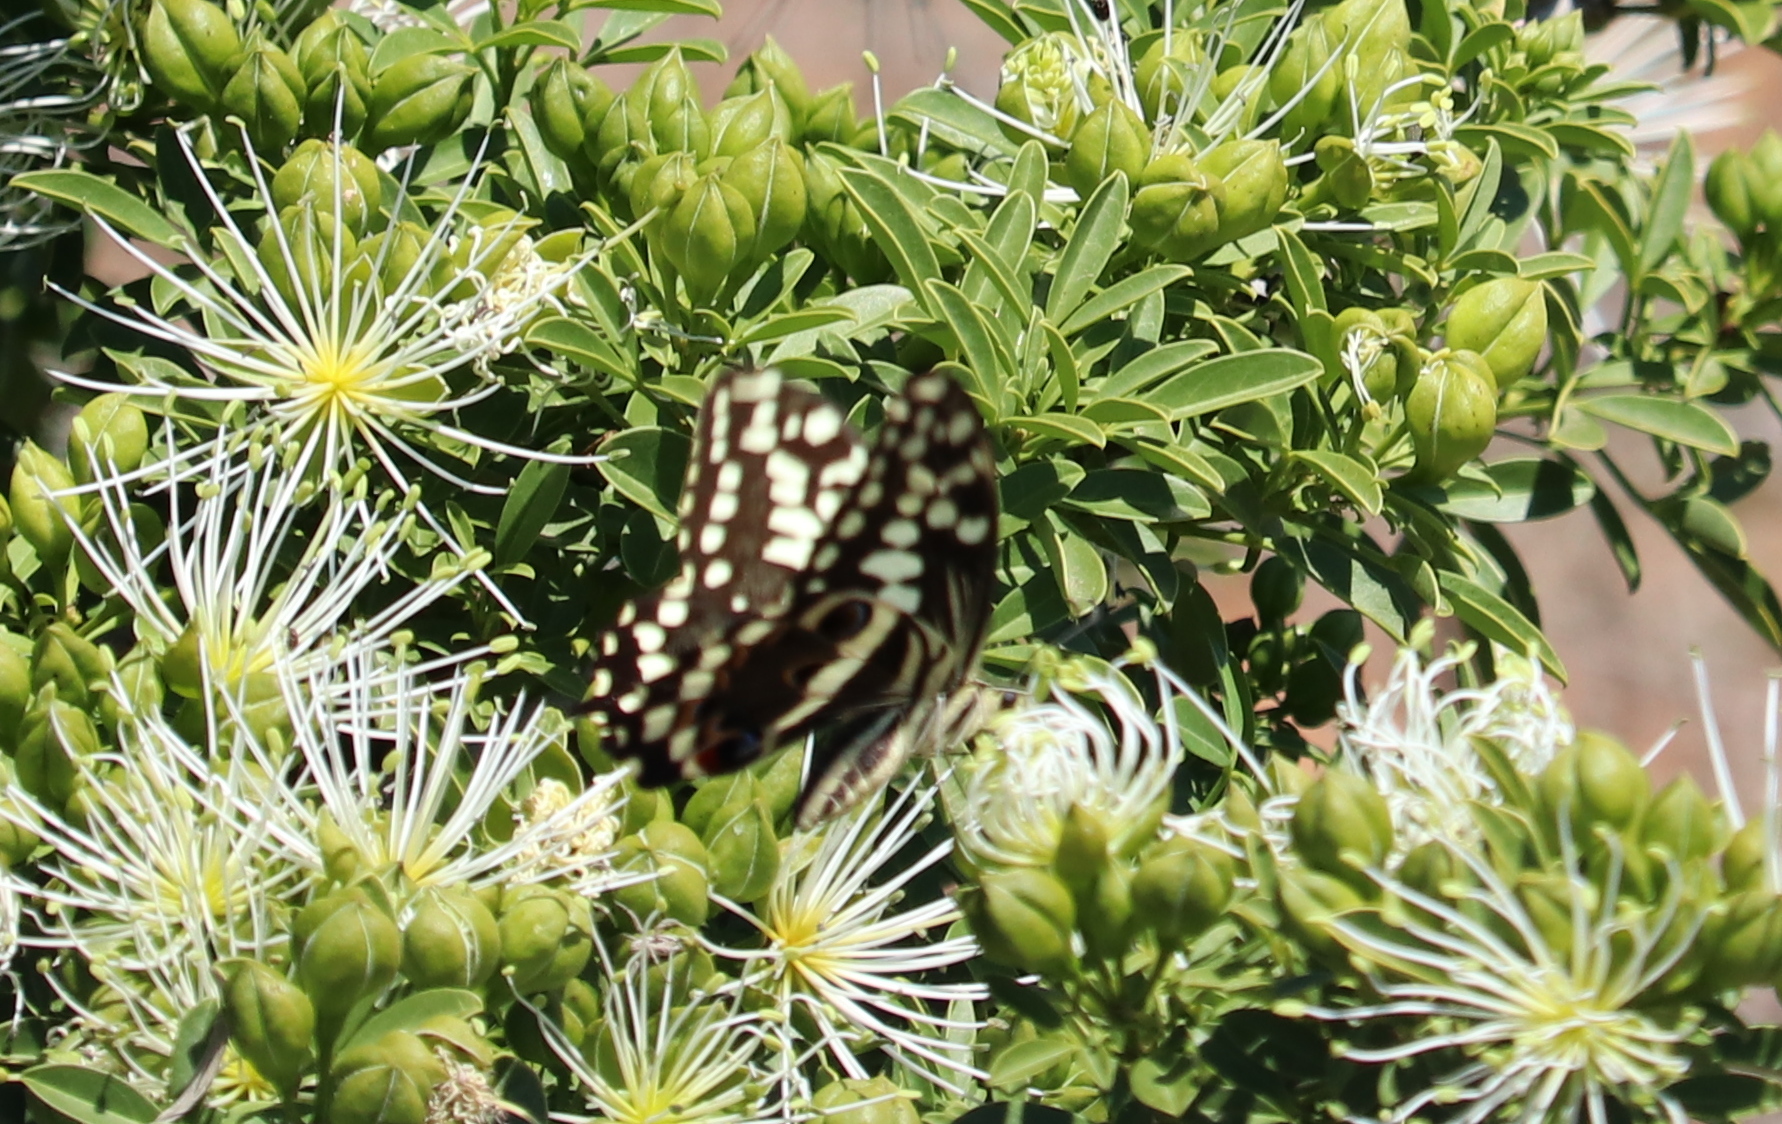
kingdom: Animalia
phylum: Arthropoda
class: Insecta
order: Lepidoptera
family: Papilionidae
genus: Papilio
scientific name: Papilio demodocus
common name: Christmas butterfly
